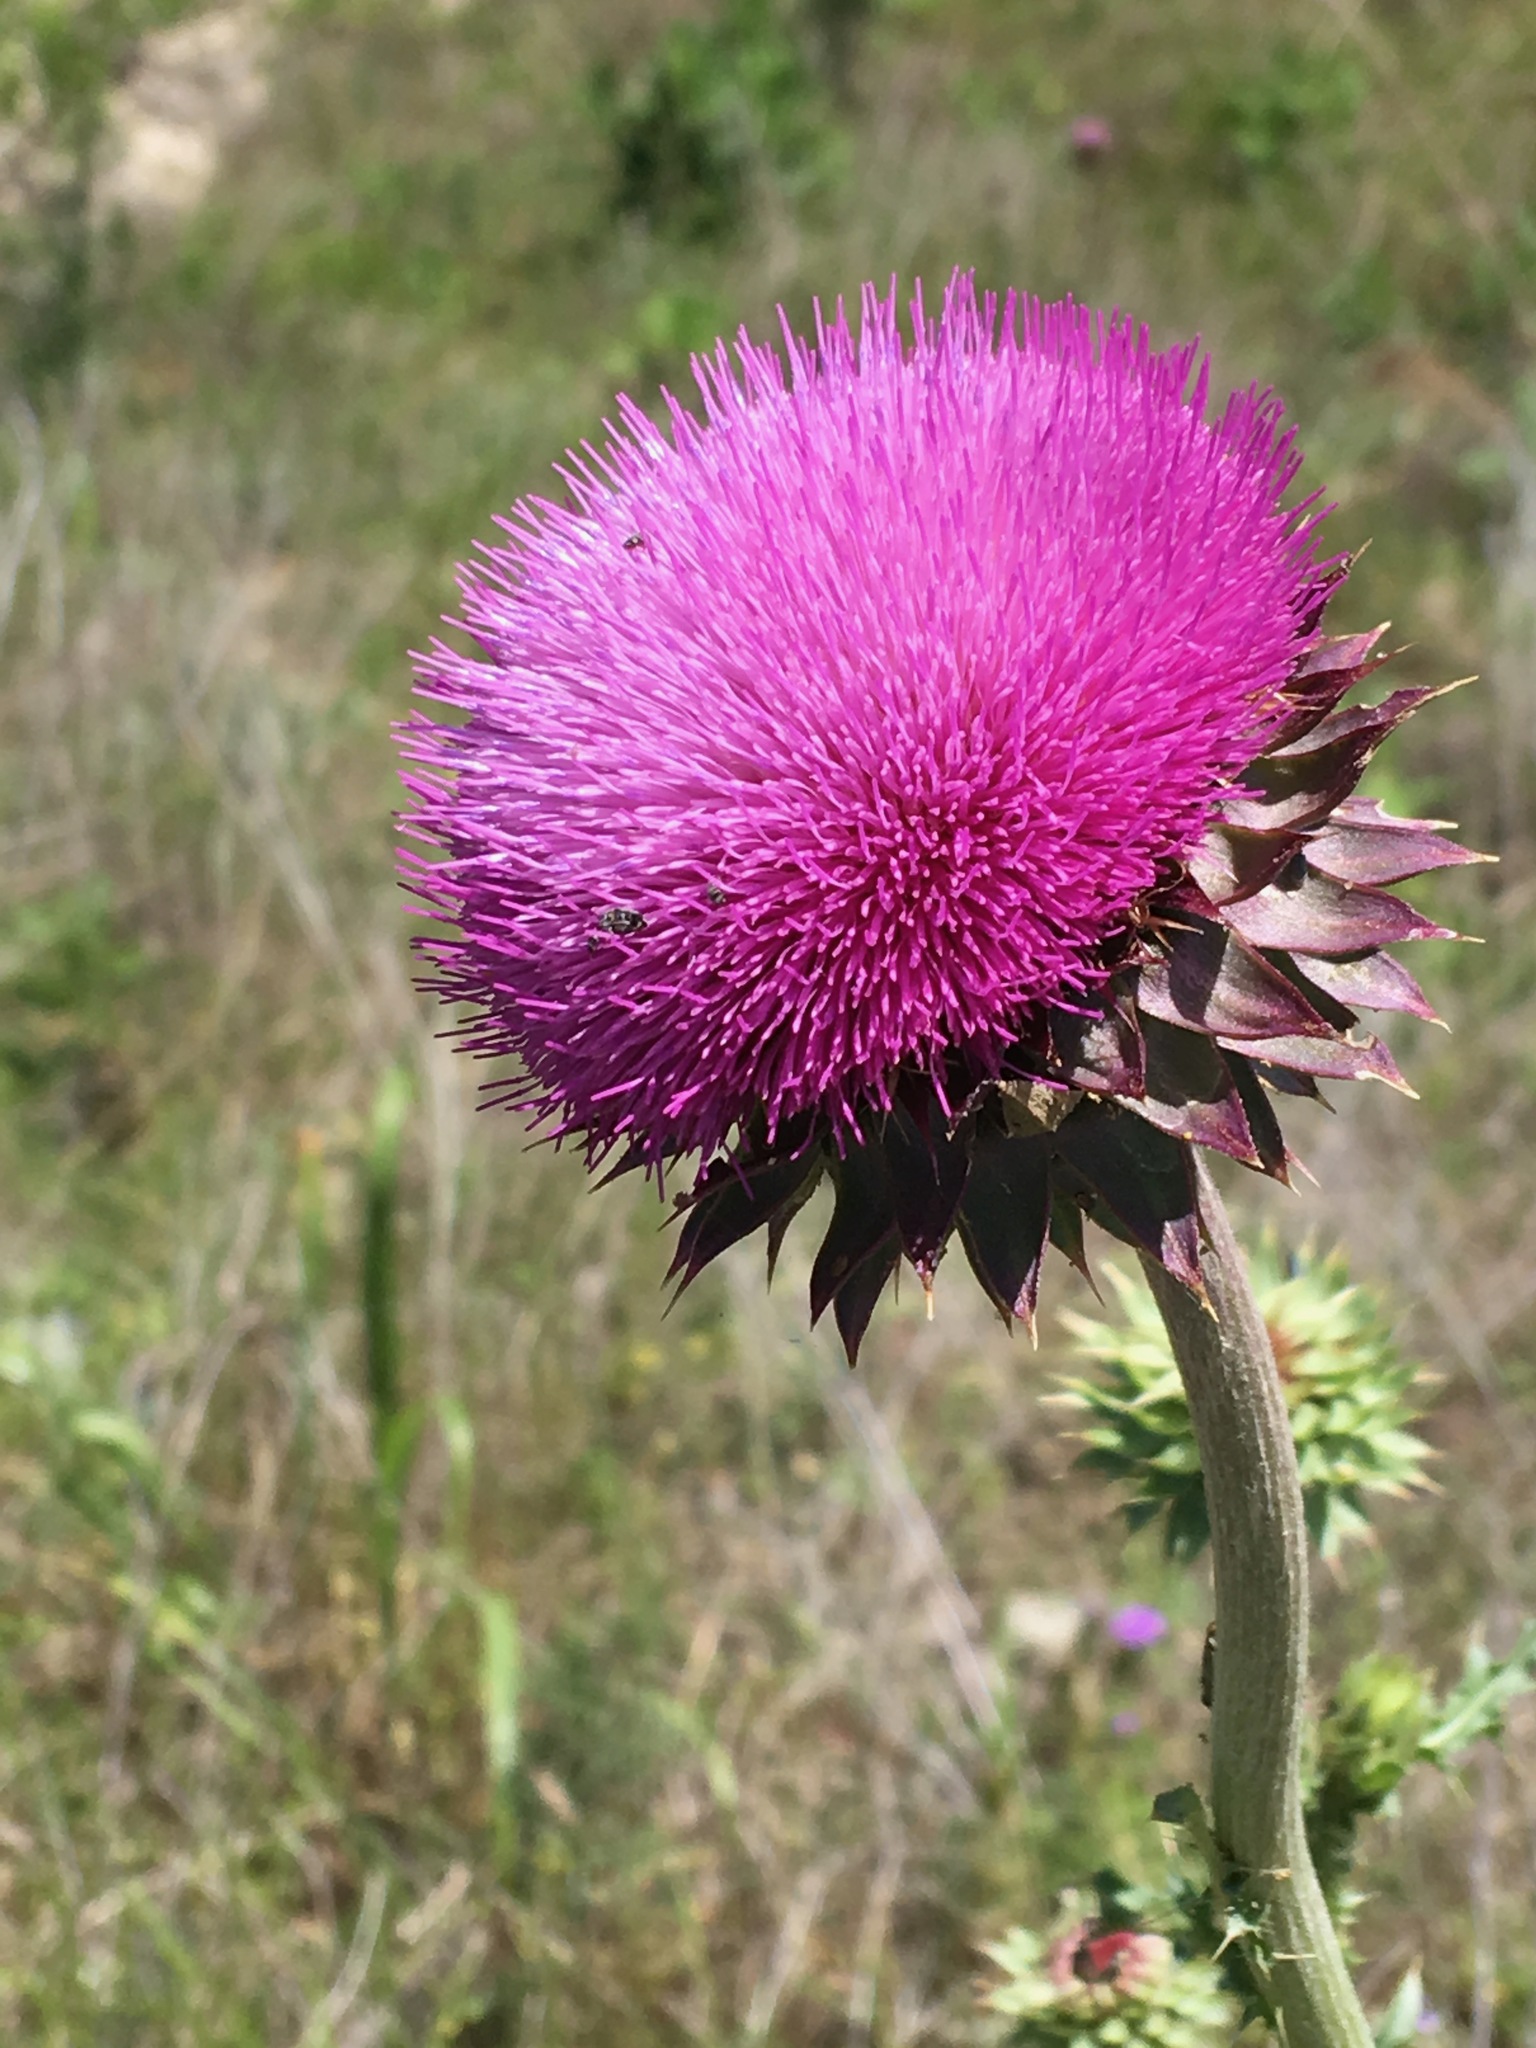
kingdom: Plantae
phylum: Tracheophyta
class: Magnoliopsida
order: Asterales
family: Asteraceae
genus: Carduus
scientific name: Carduus nutans
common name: Musk thistle
